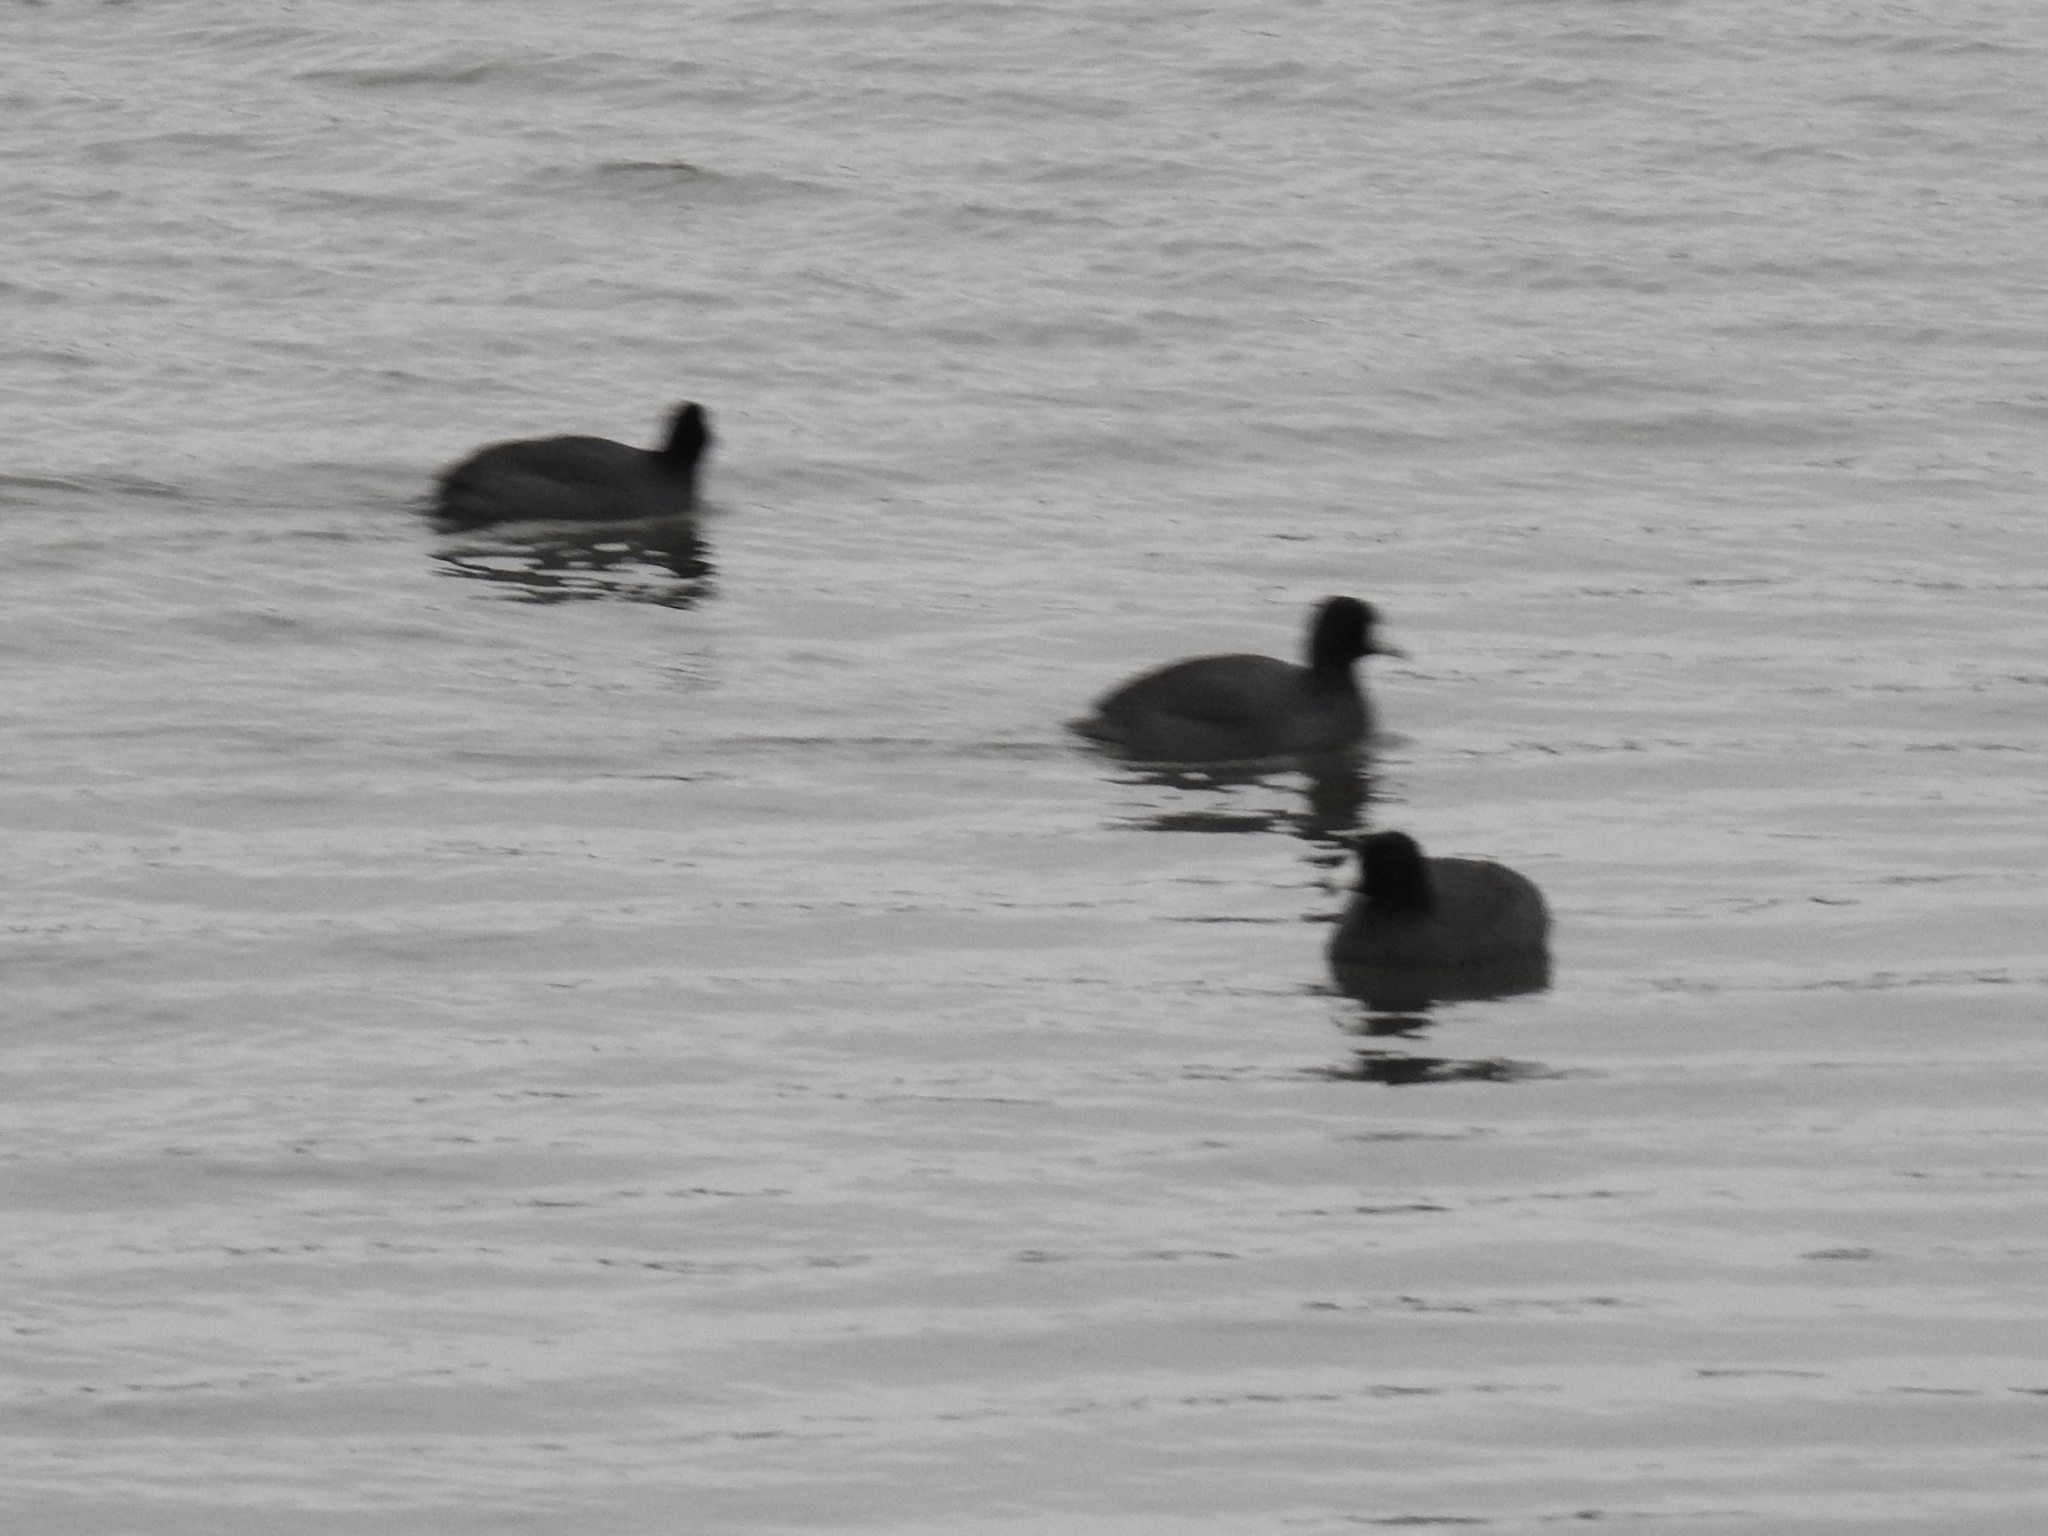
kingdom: Animalia
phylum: Chordata
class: Aves
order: Gruiformes
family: Rallidae
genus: Fulica
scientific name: Fulica americana
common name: American coot
